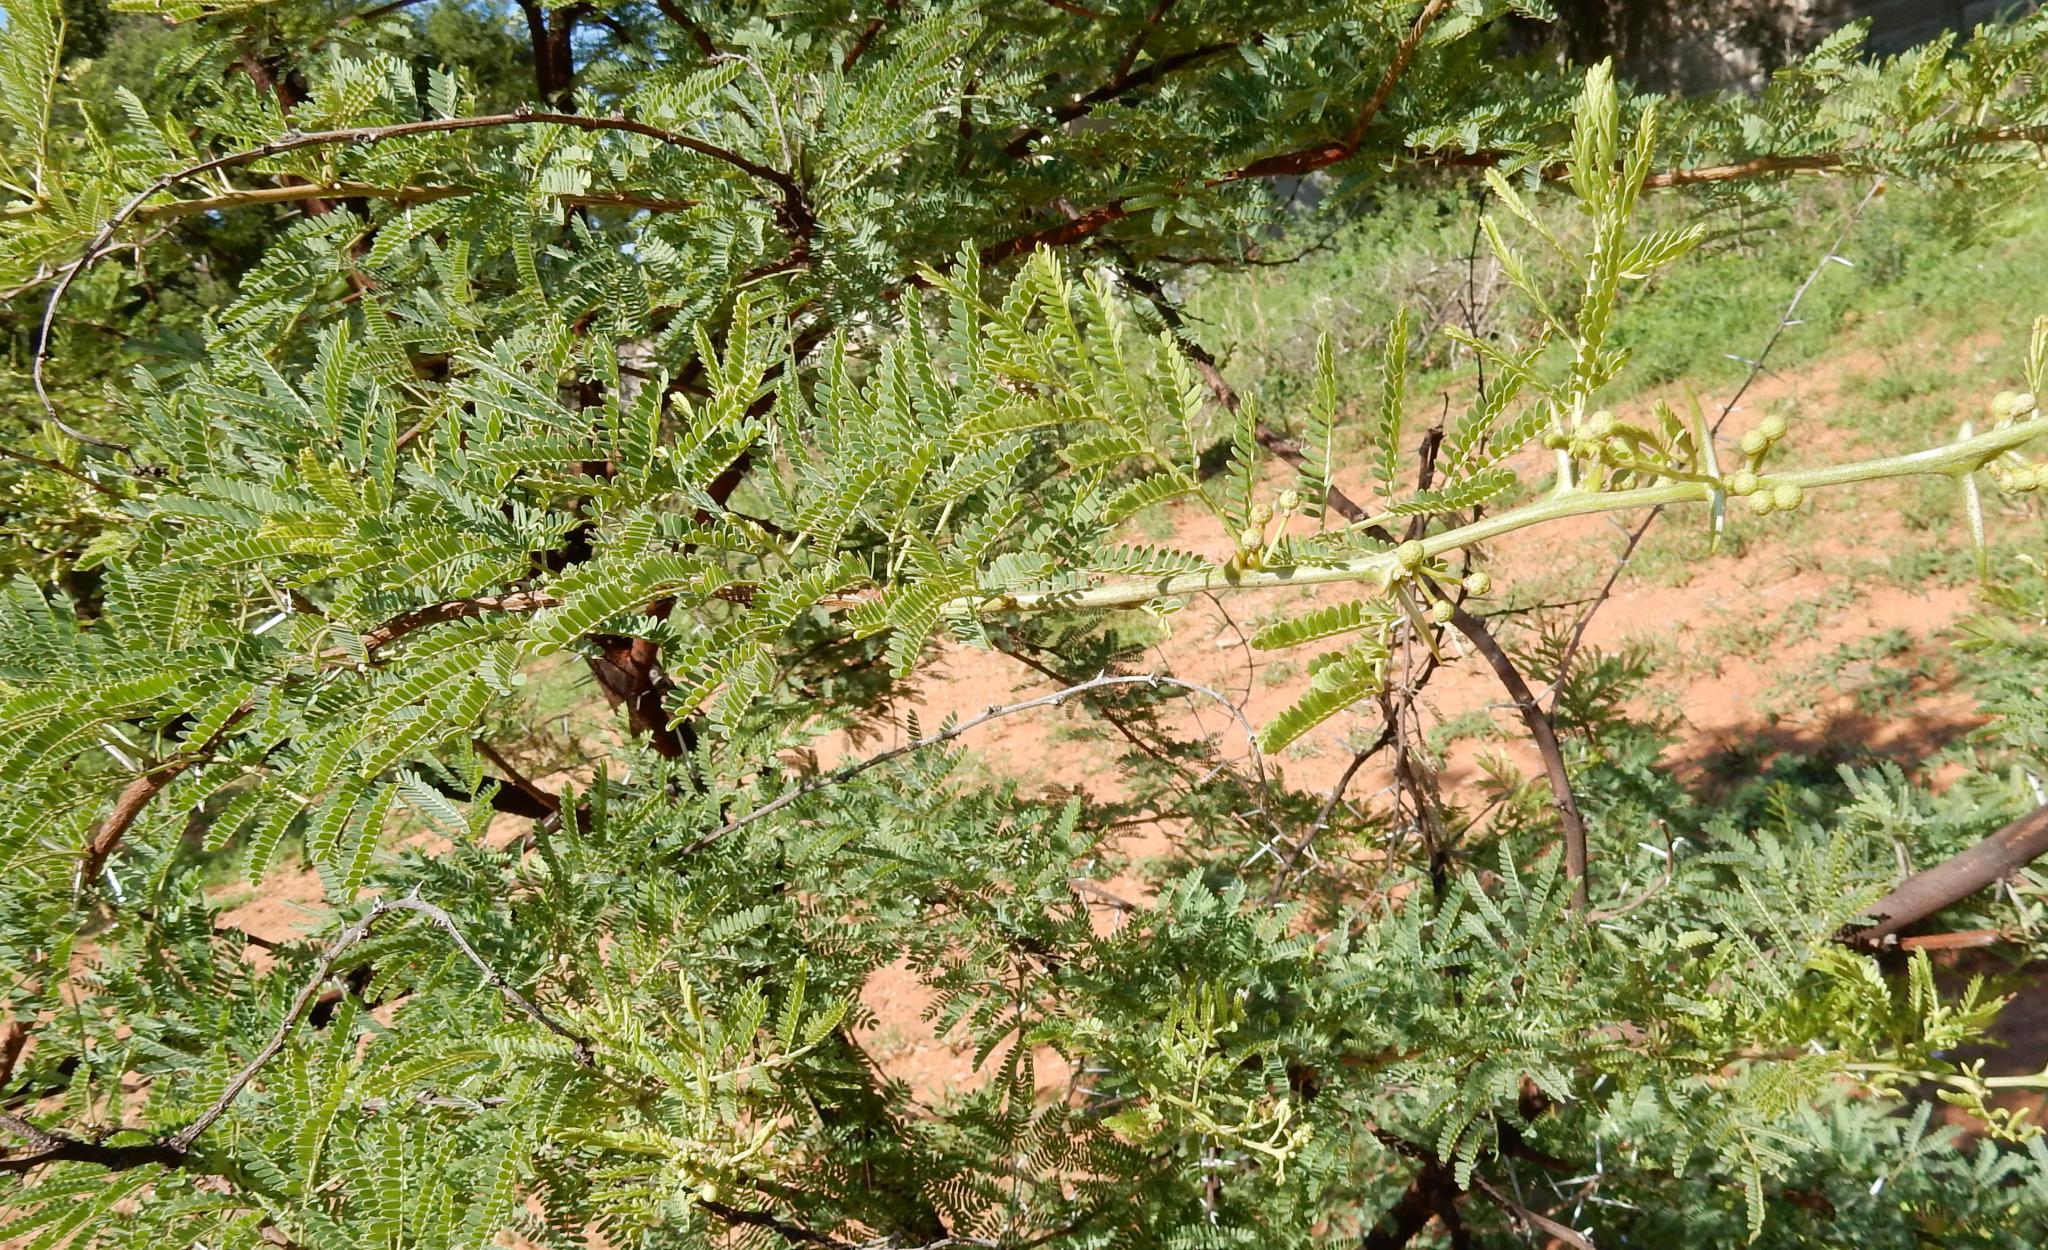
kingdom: Plantae
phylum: Tracheophyta
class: Magnoliopsida
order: Fabales
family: Fabaceae
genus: Vachellia
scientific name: Vachellia karroo
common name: Sweet thorn
